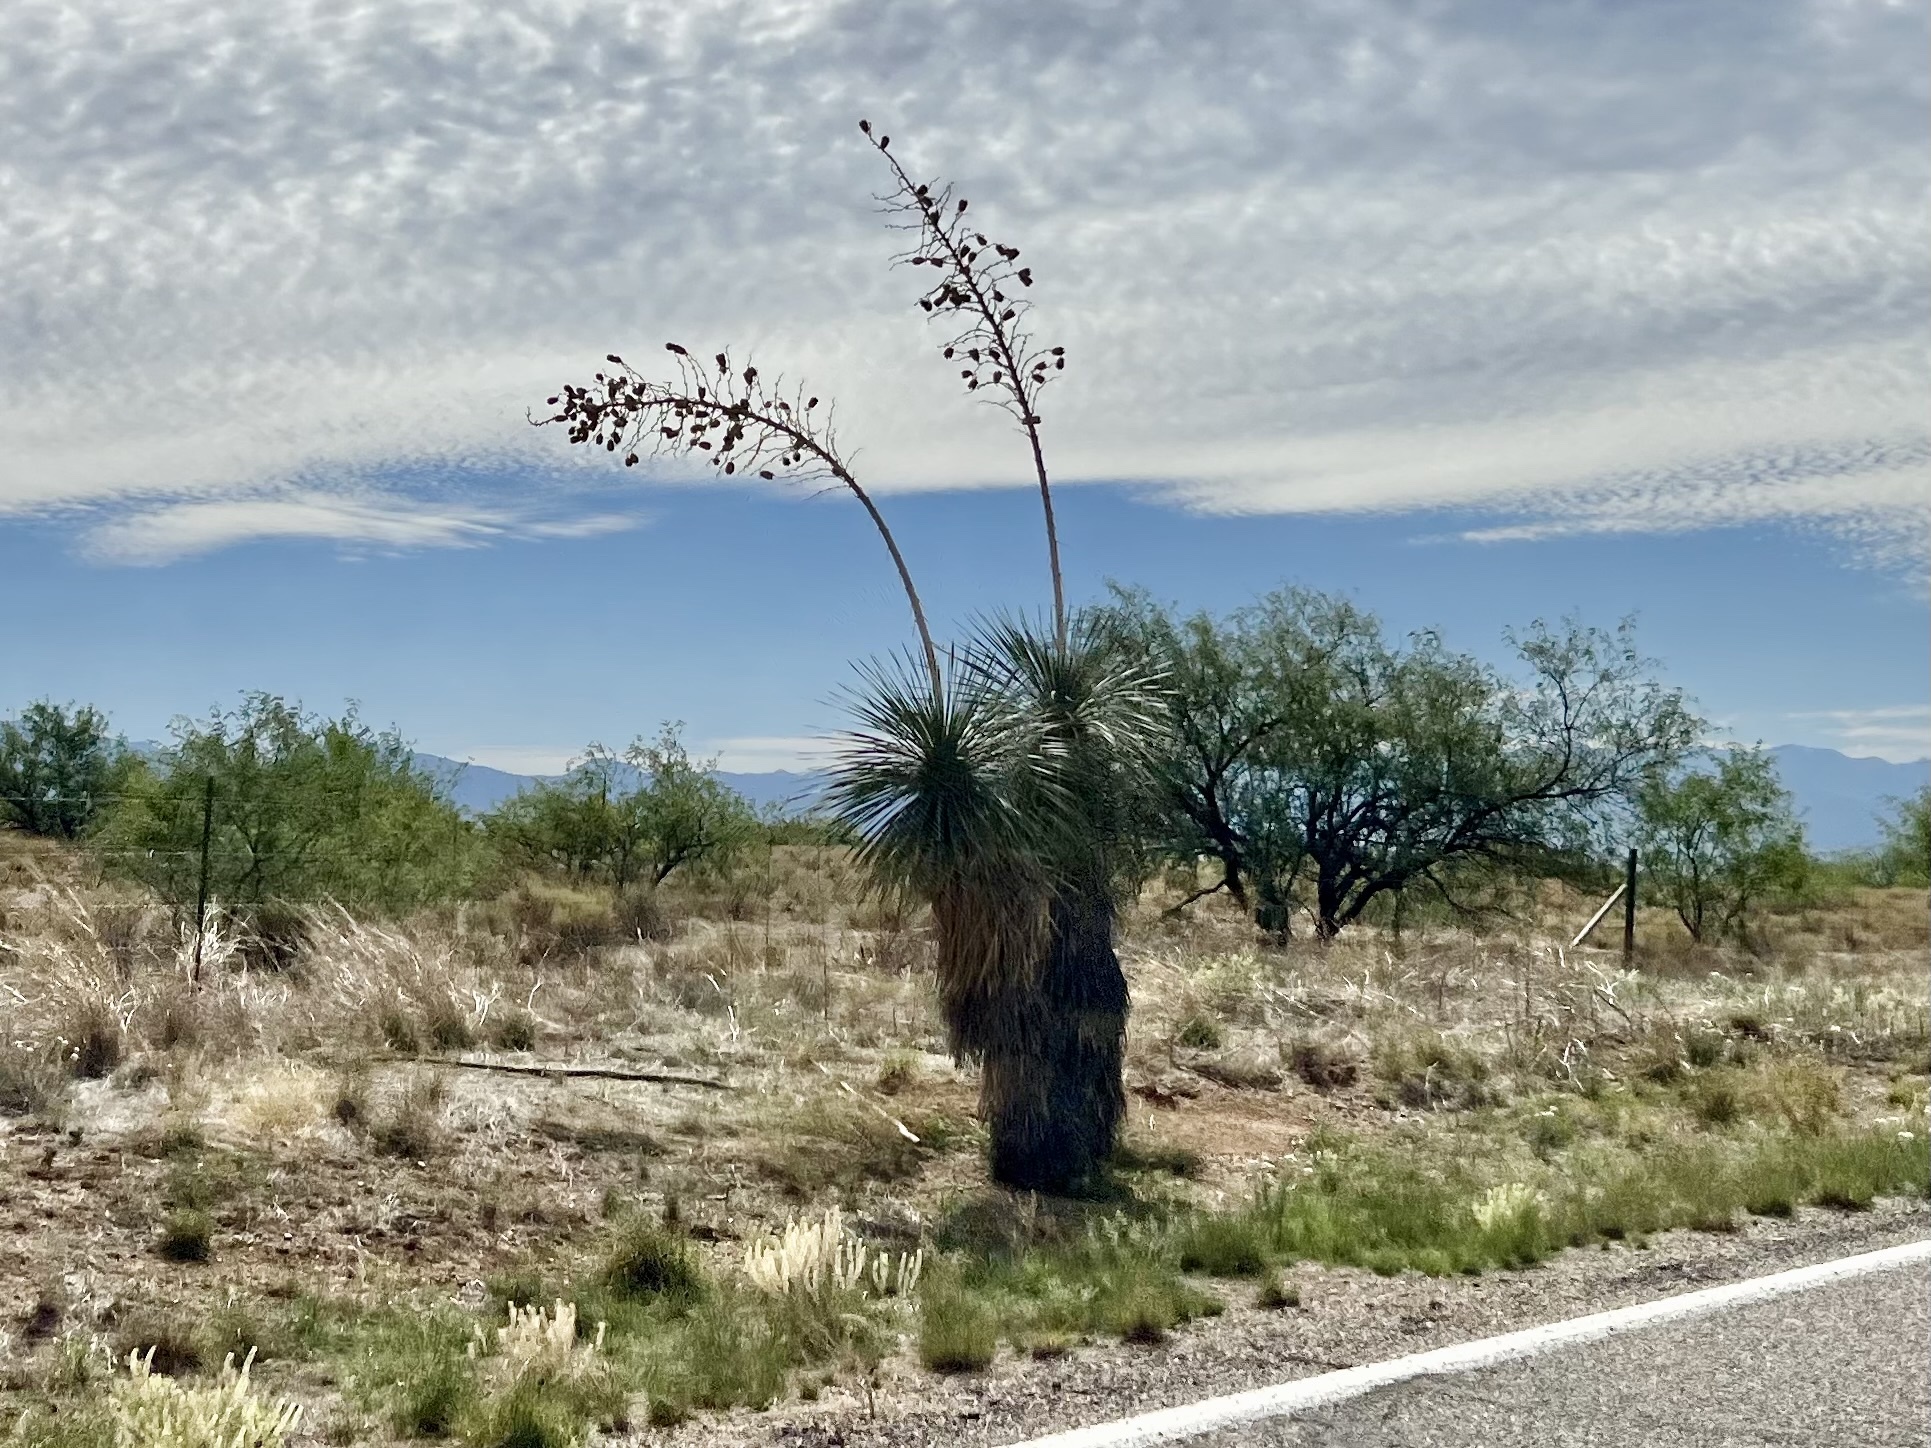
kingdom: Plantae
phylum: Tracheophyta
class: Liliopsida
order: Asparagales
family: Asparagaceae
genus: Yucca
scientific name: Yucca elata
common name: Palmella
